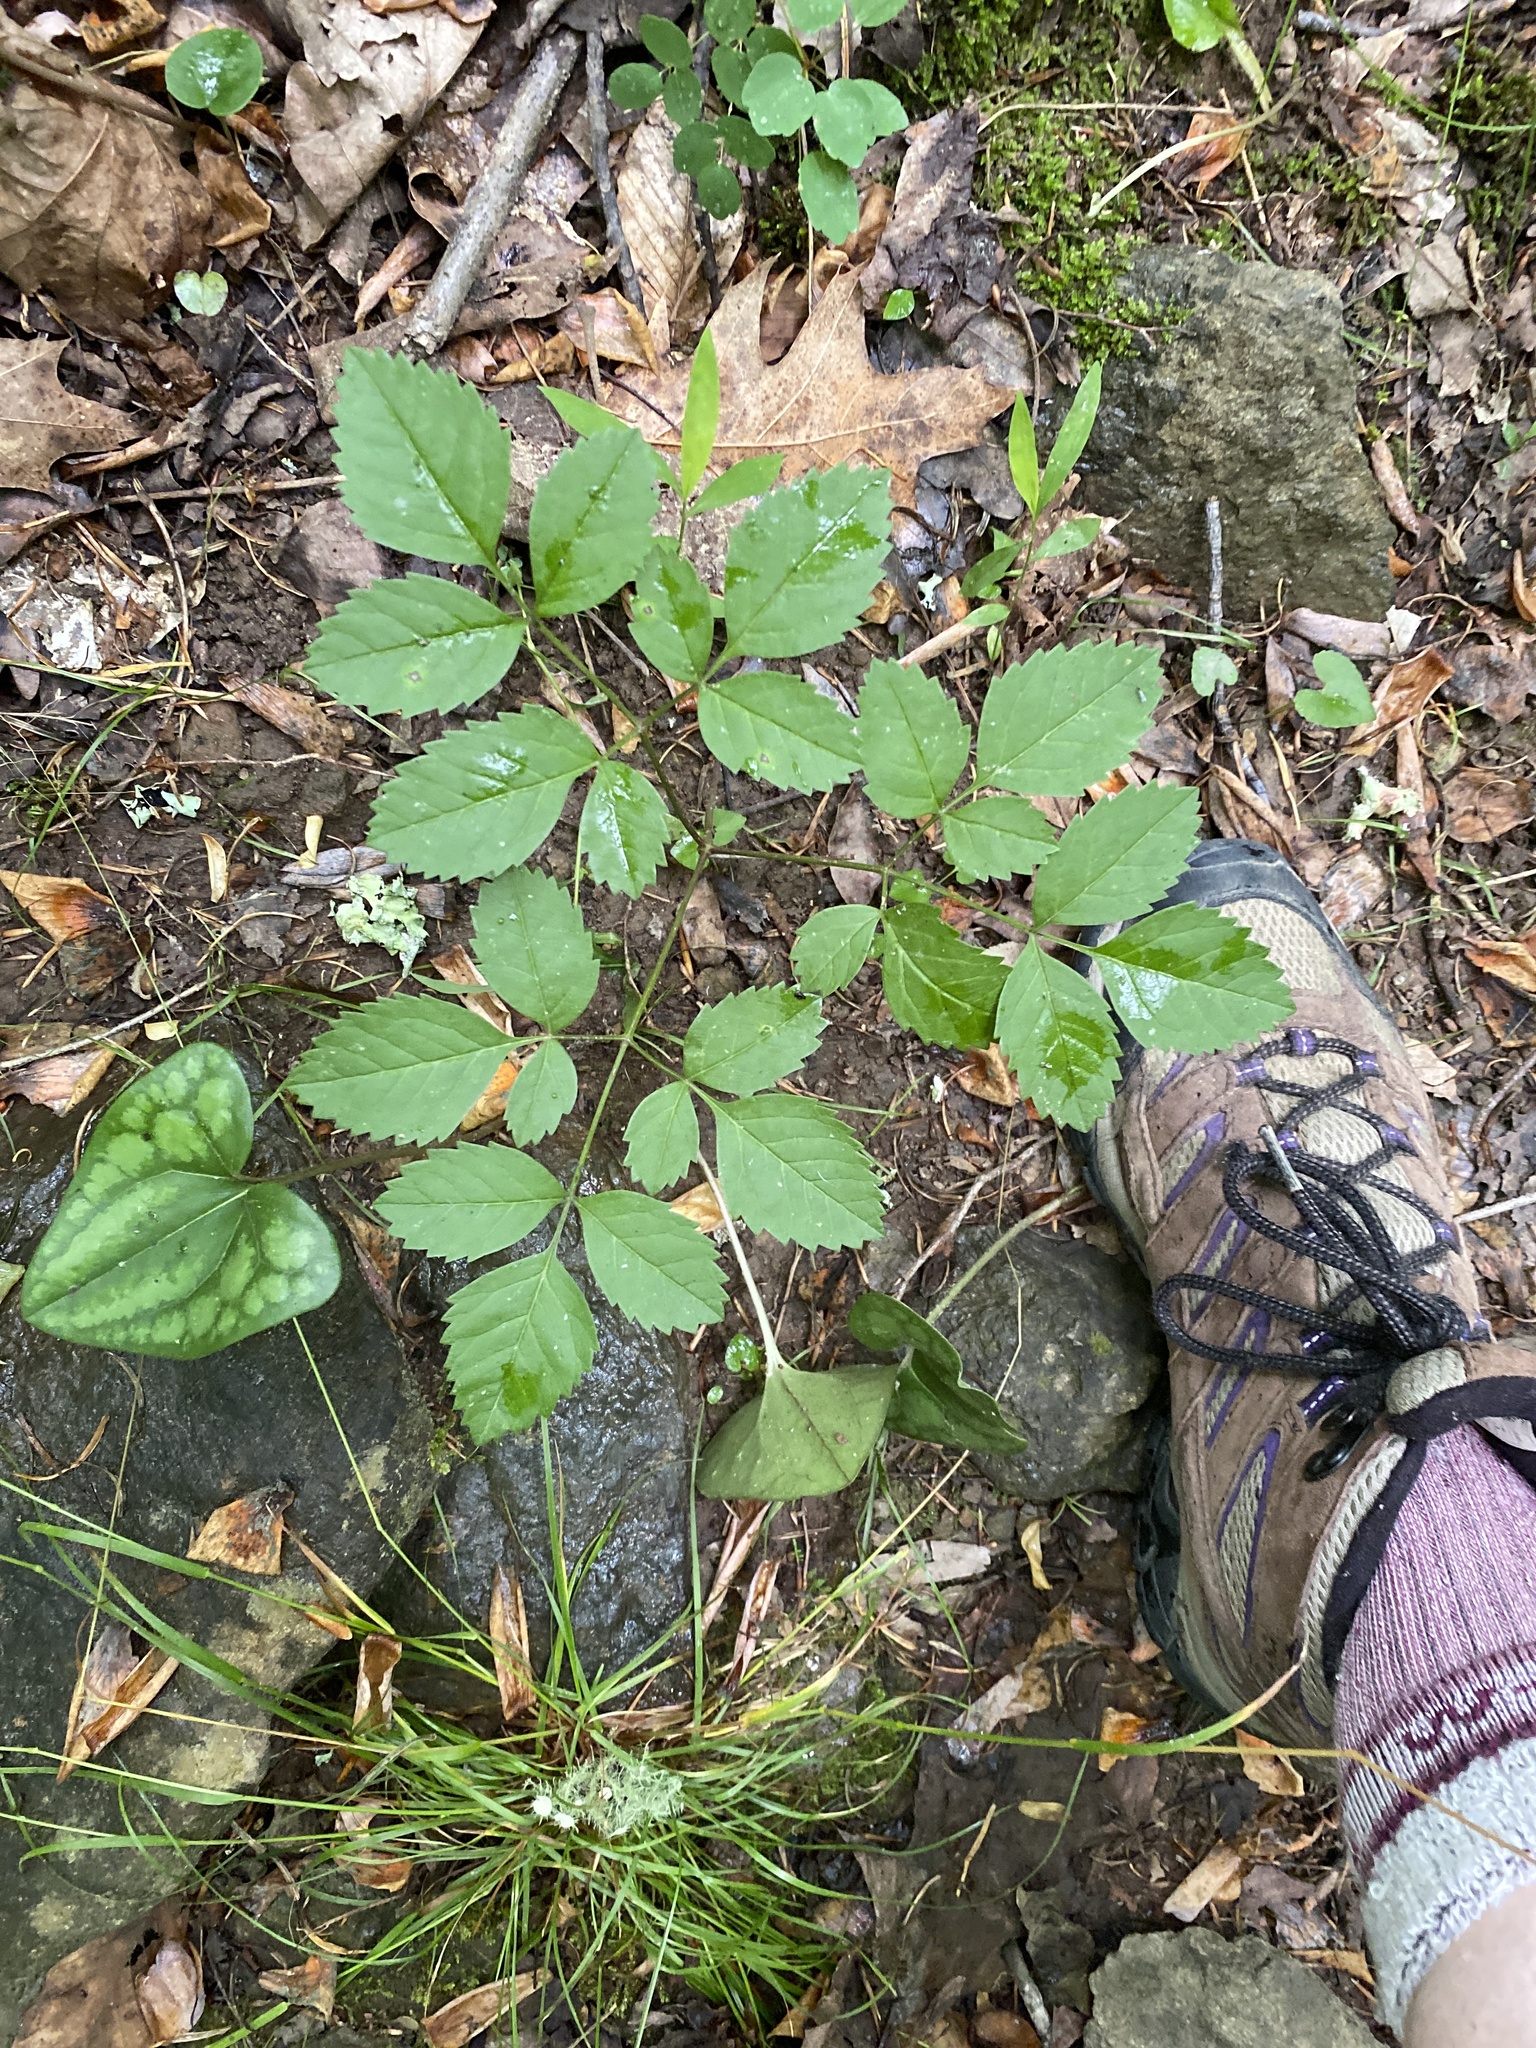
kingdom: Plantae
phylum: Tracheophyta
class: Magnoliopsida
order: Apiales
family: Apiaceae
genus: Ligusticum
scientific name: Ligusticum canadense
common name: American lovage
